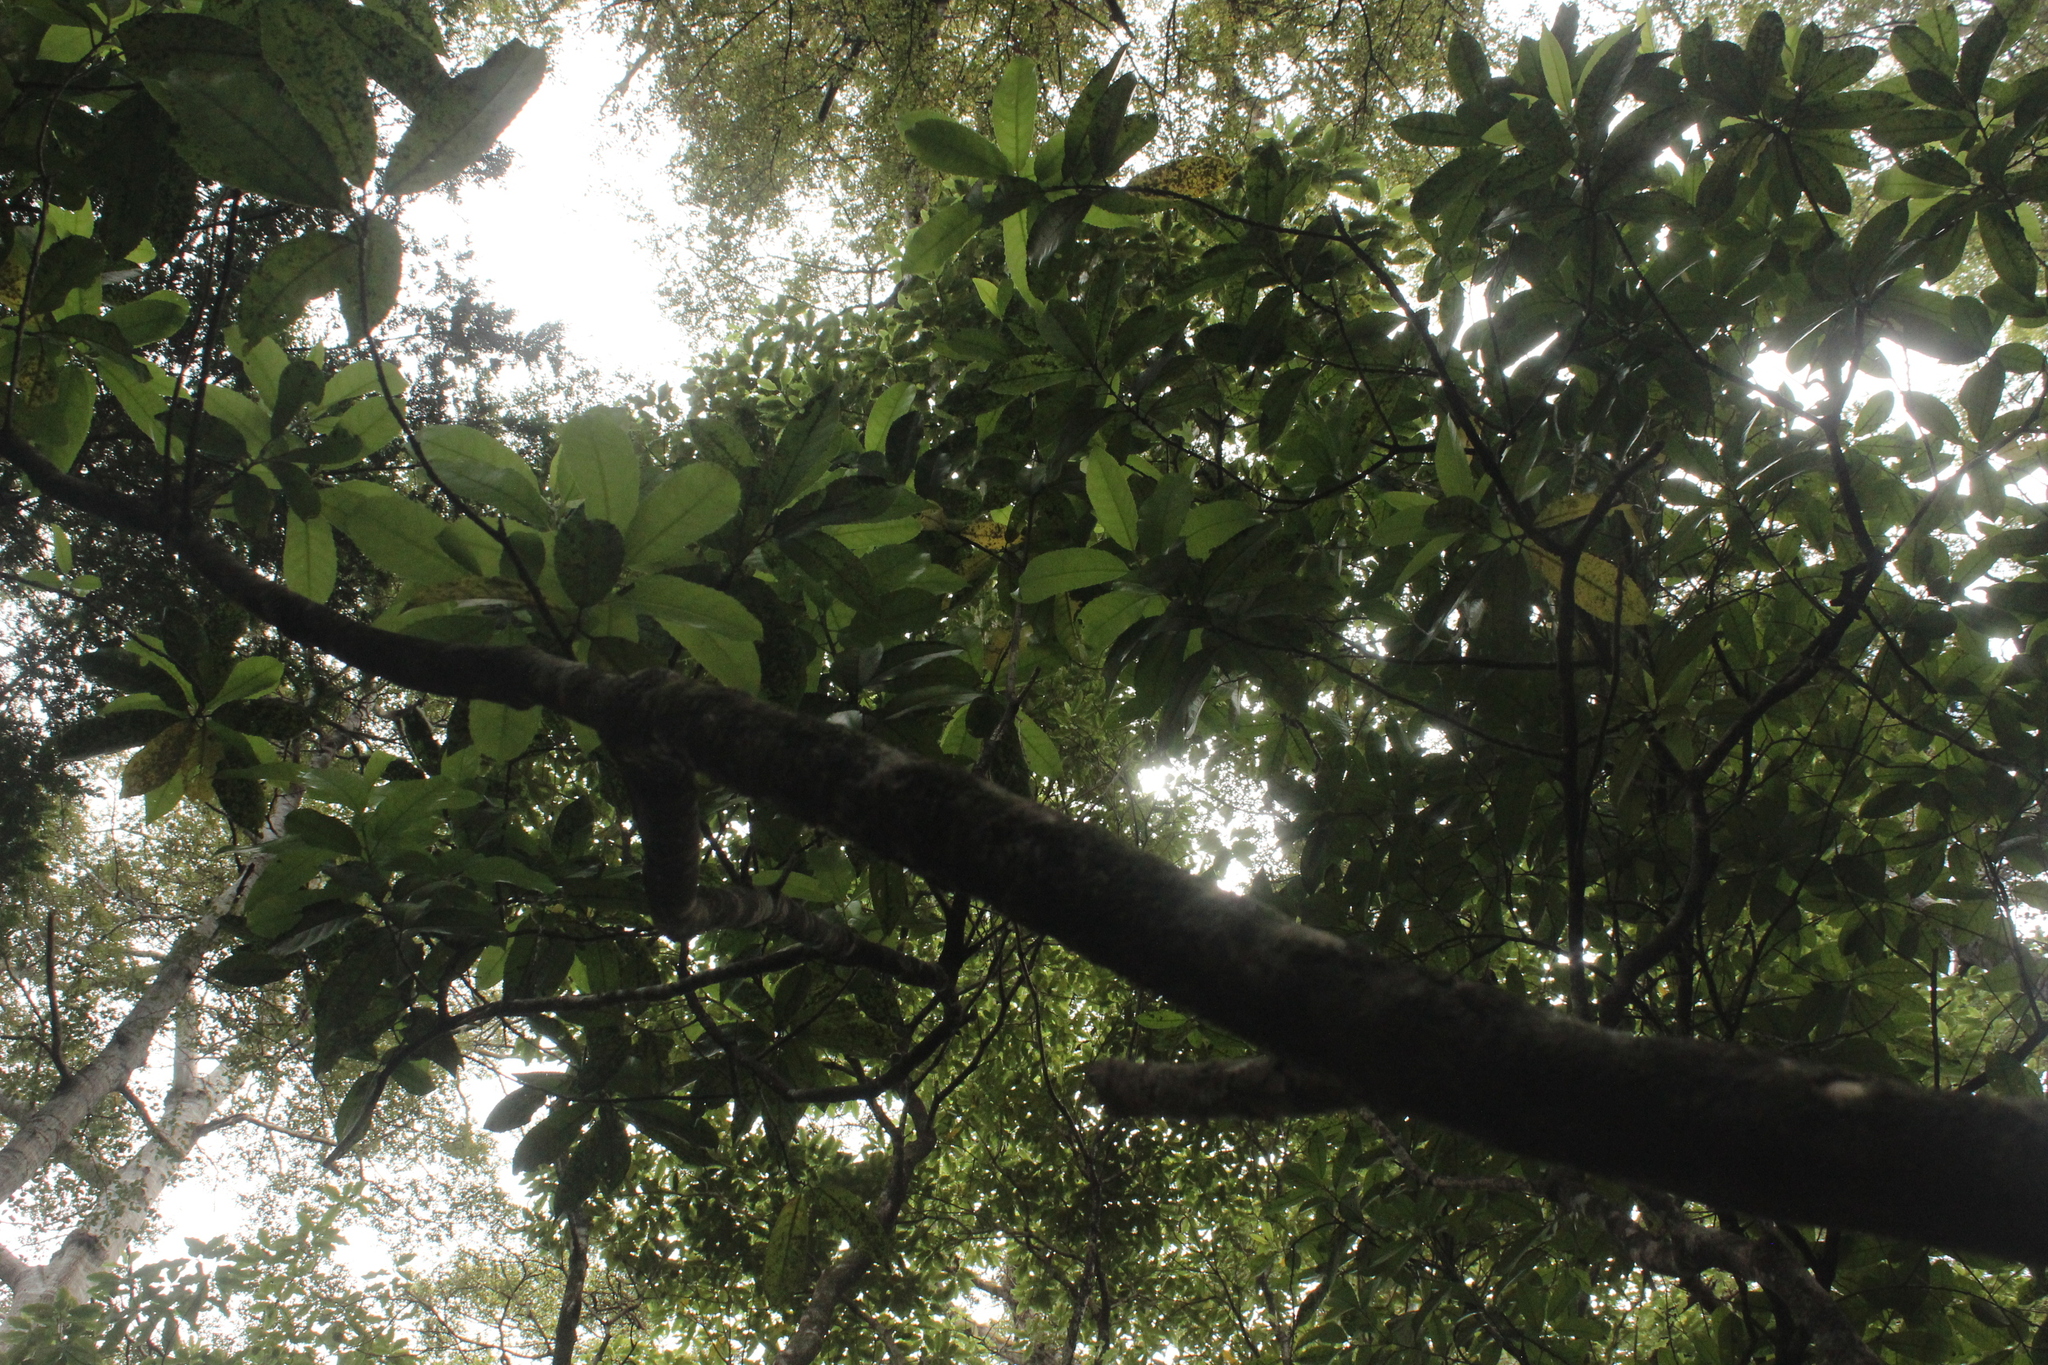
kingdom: Plantae
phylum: Tracheophyta
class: Magnoliopsida
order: Malpighiales
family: Violaceae
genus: Melicytus
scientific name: Melicytus ramiflorus
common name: Mahoe
